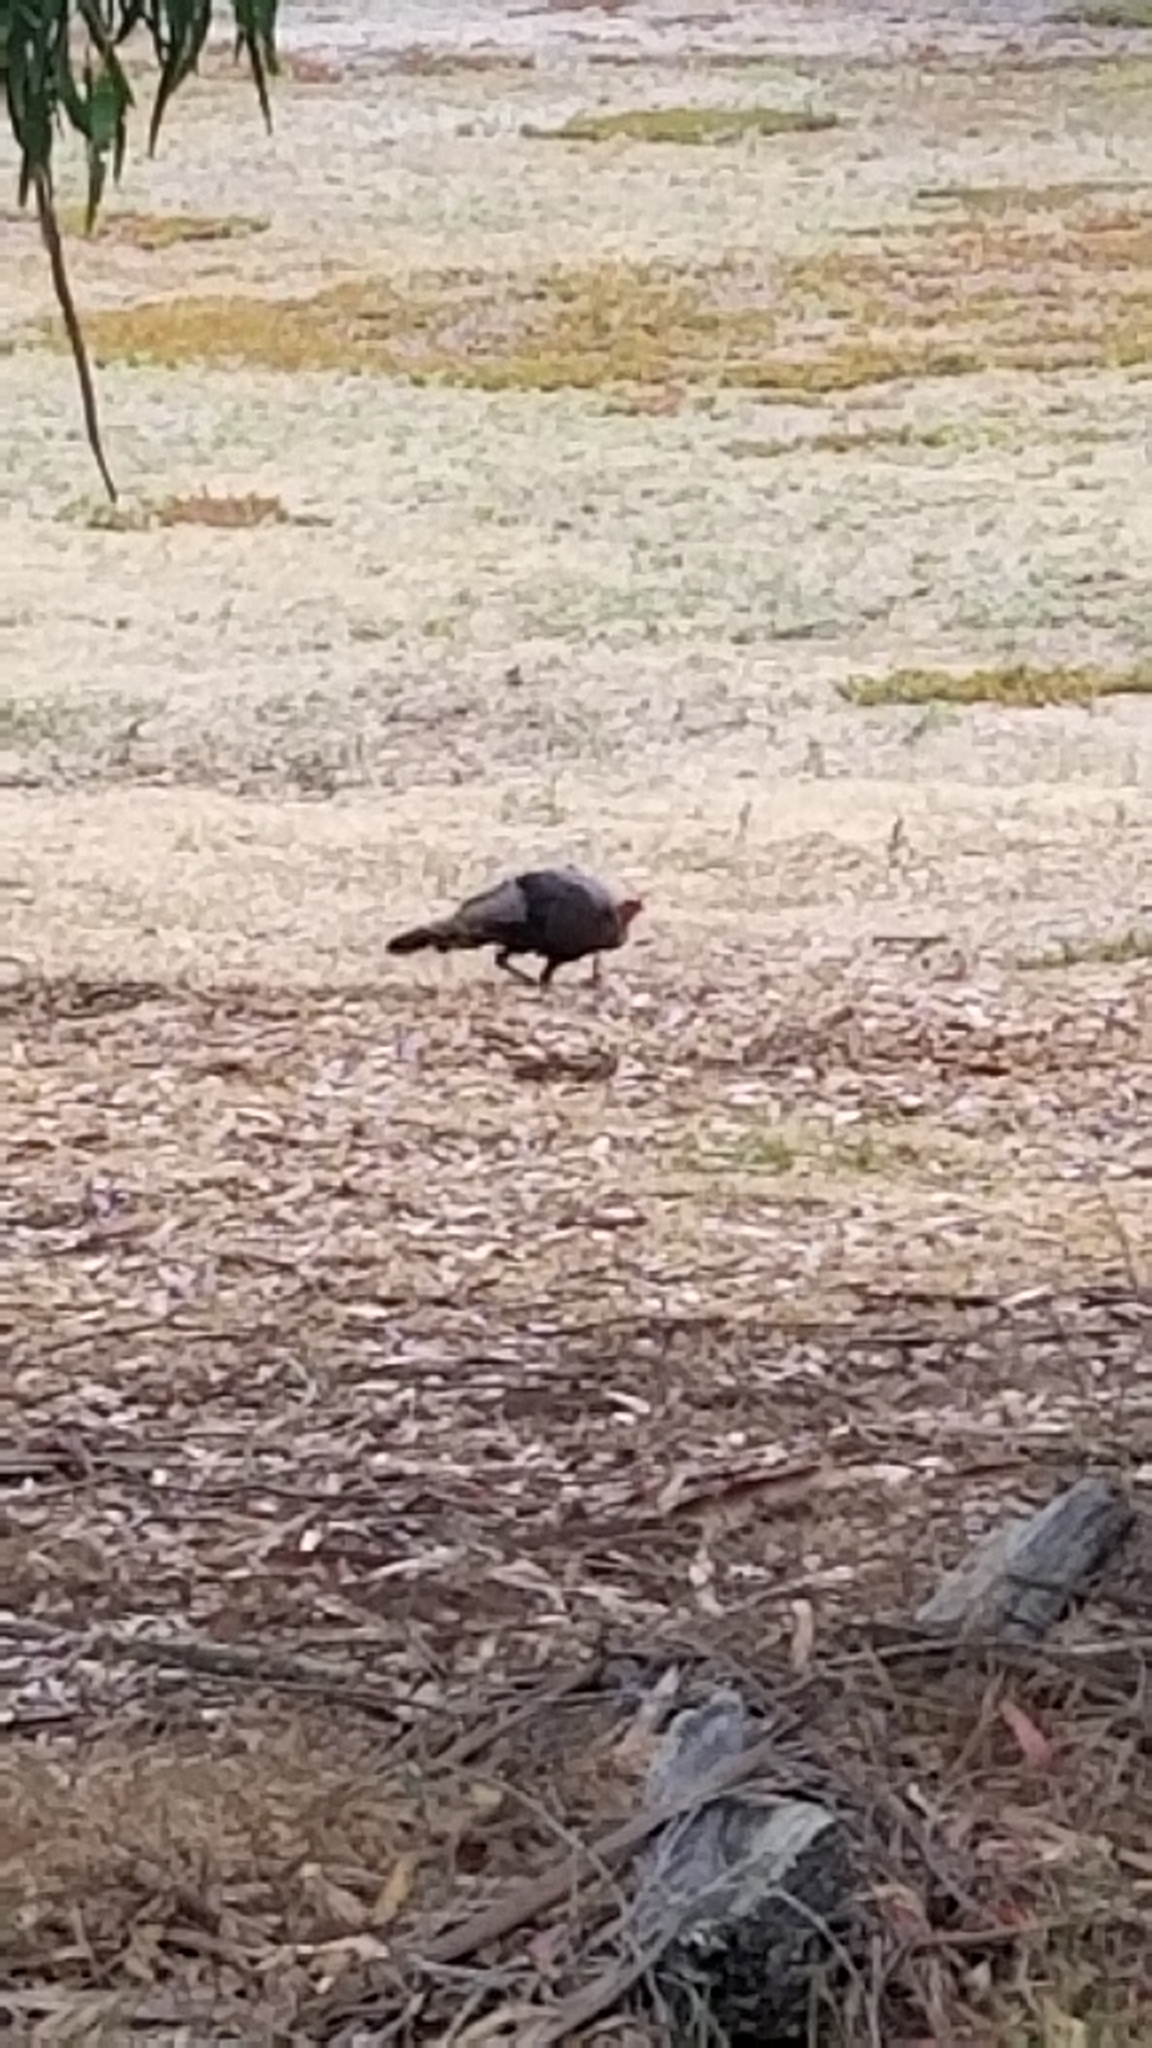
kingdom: Animalia
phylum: Chordata
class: Aves
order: Galliformes
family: Phasianidae
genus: Meleagris
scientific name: Meleagris gallopavo
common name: Wild turkey
